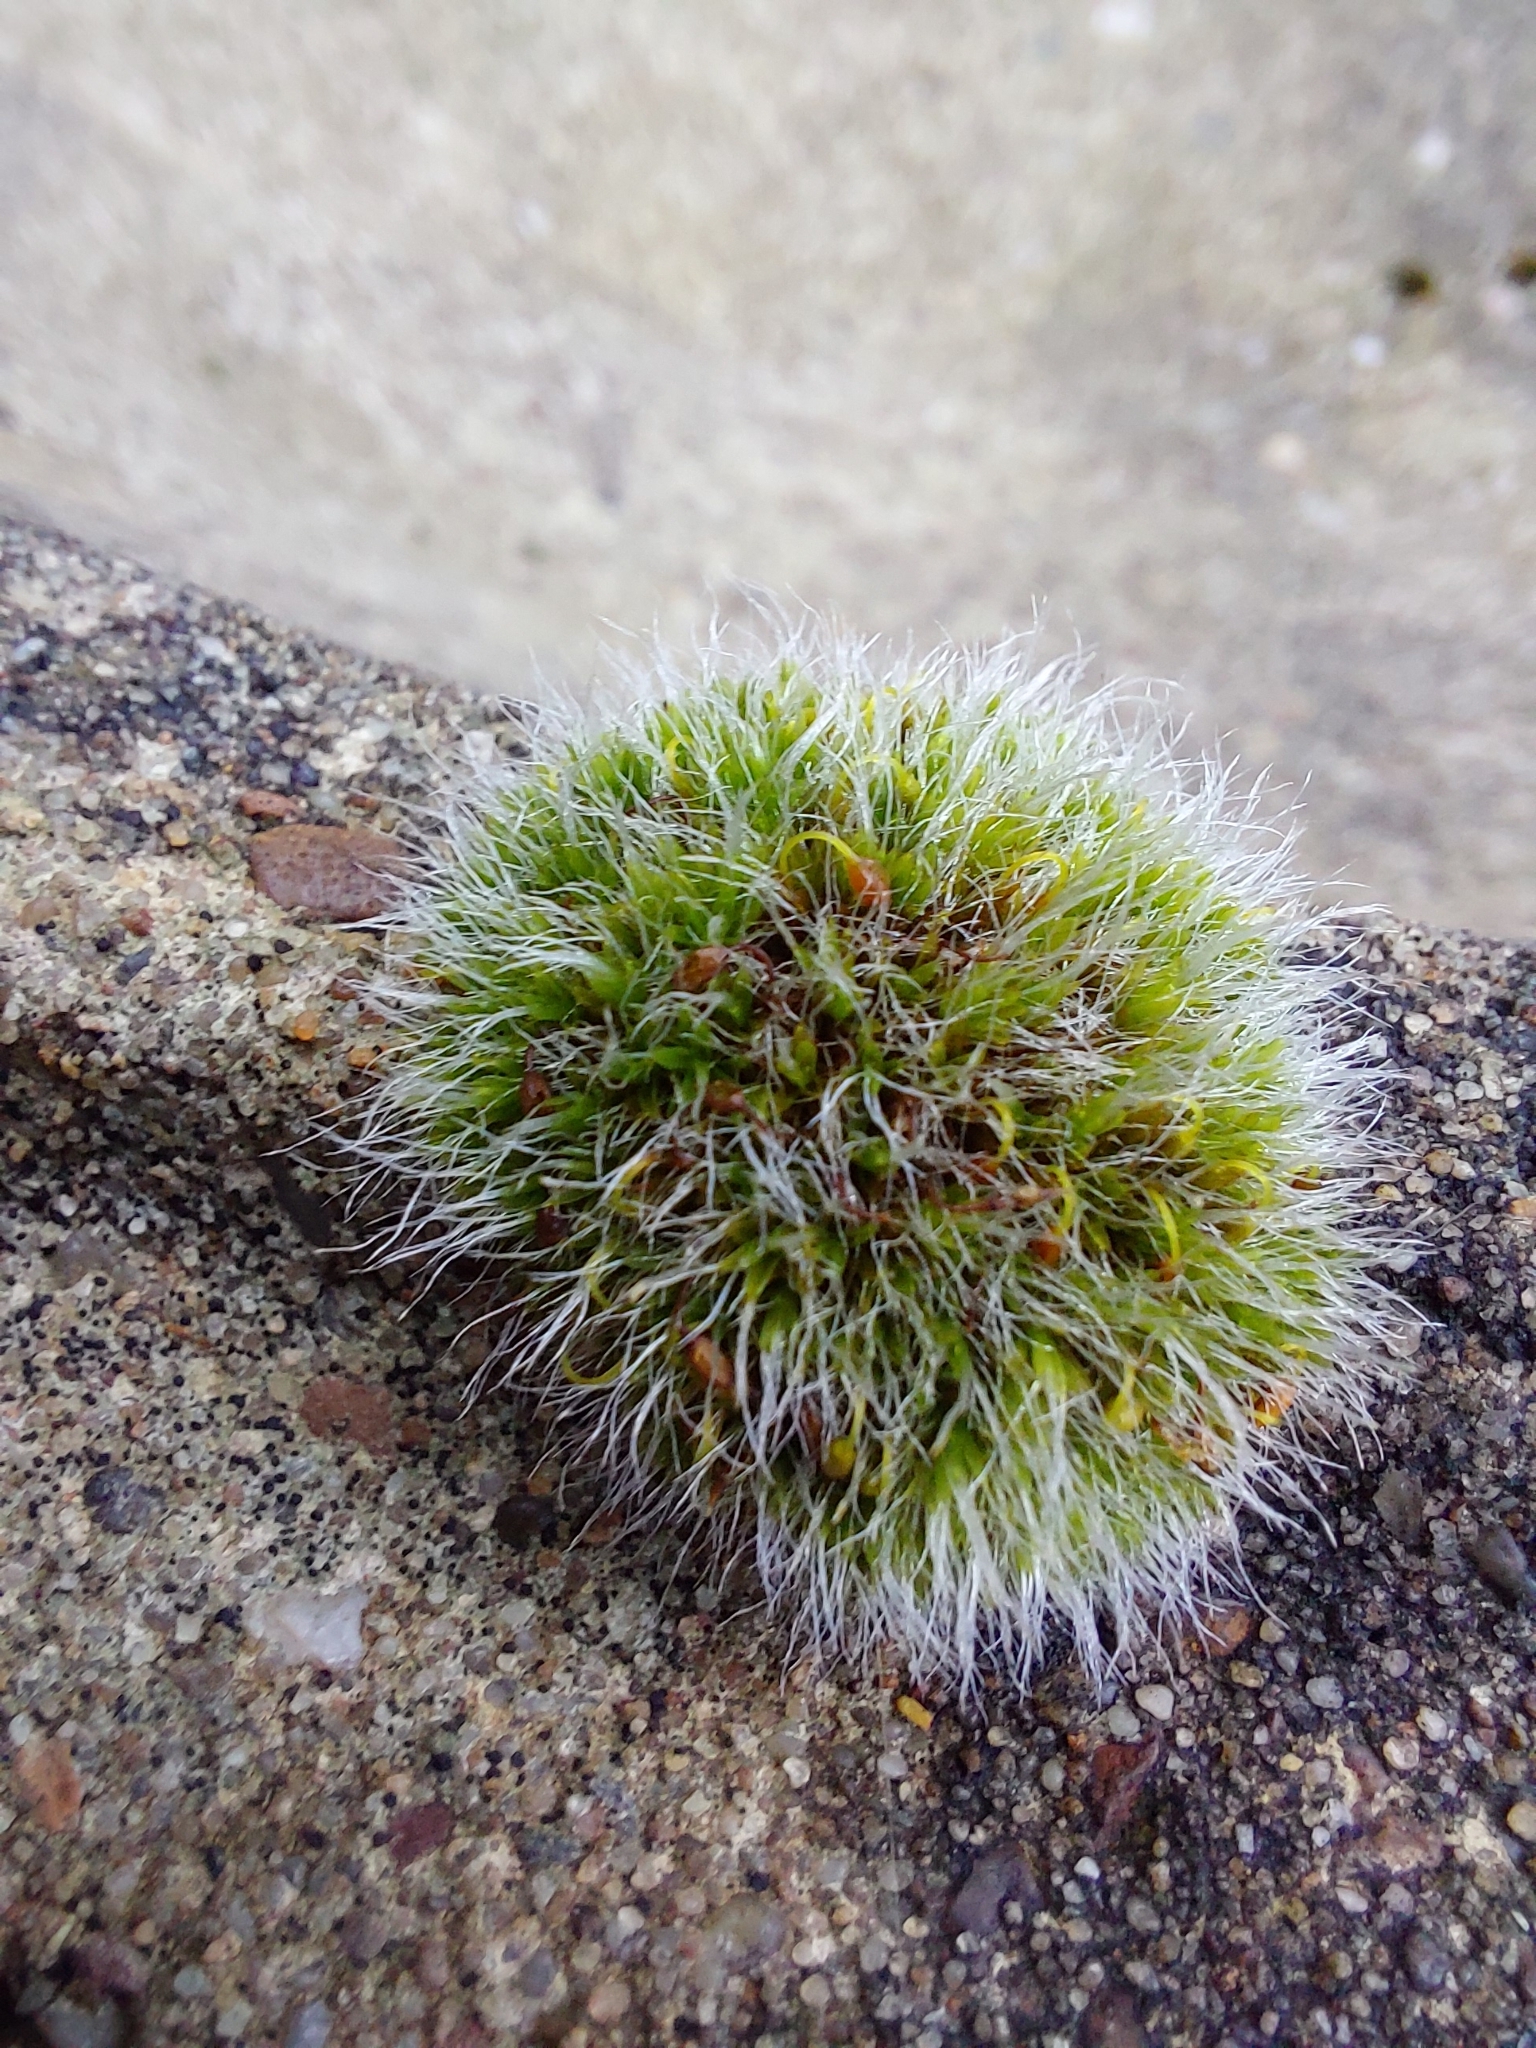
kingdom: Plantae
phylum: Bryophyta
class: Bryopsida
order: Grimmiales
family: Grimmiaceae
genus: Grimmia
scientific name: Grimmia pulvinata
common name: Grey-cushioned grimmia
